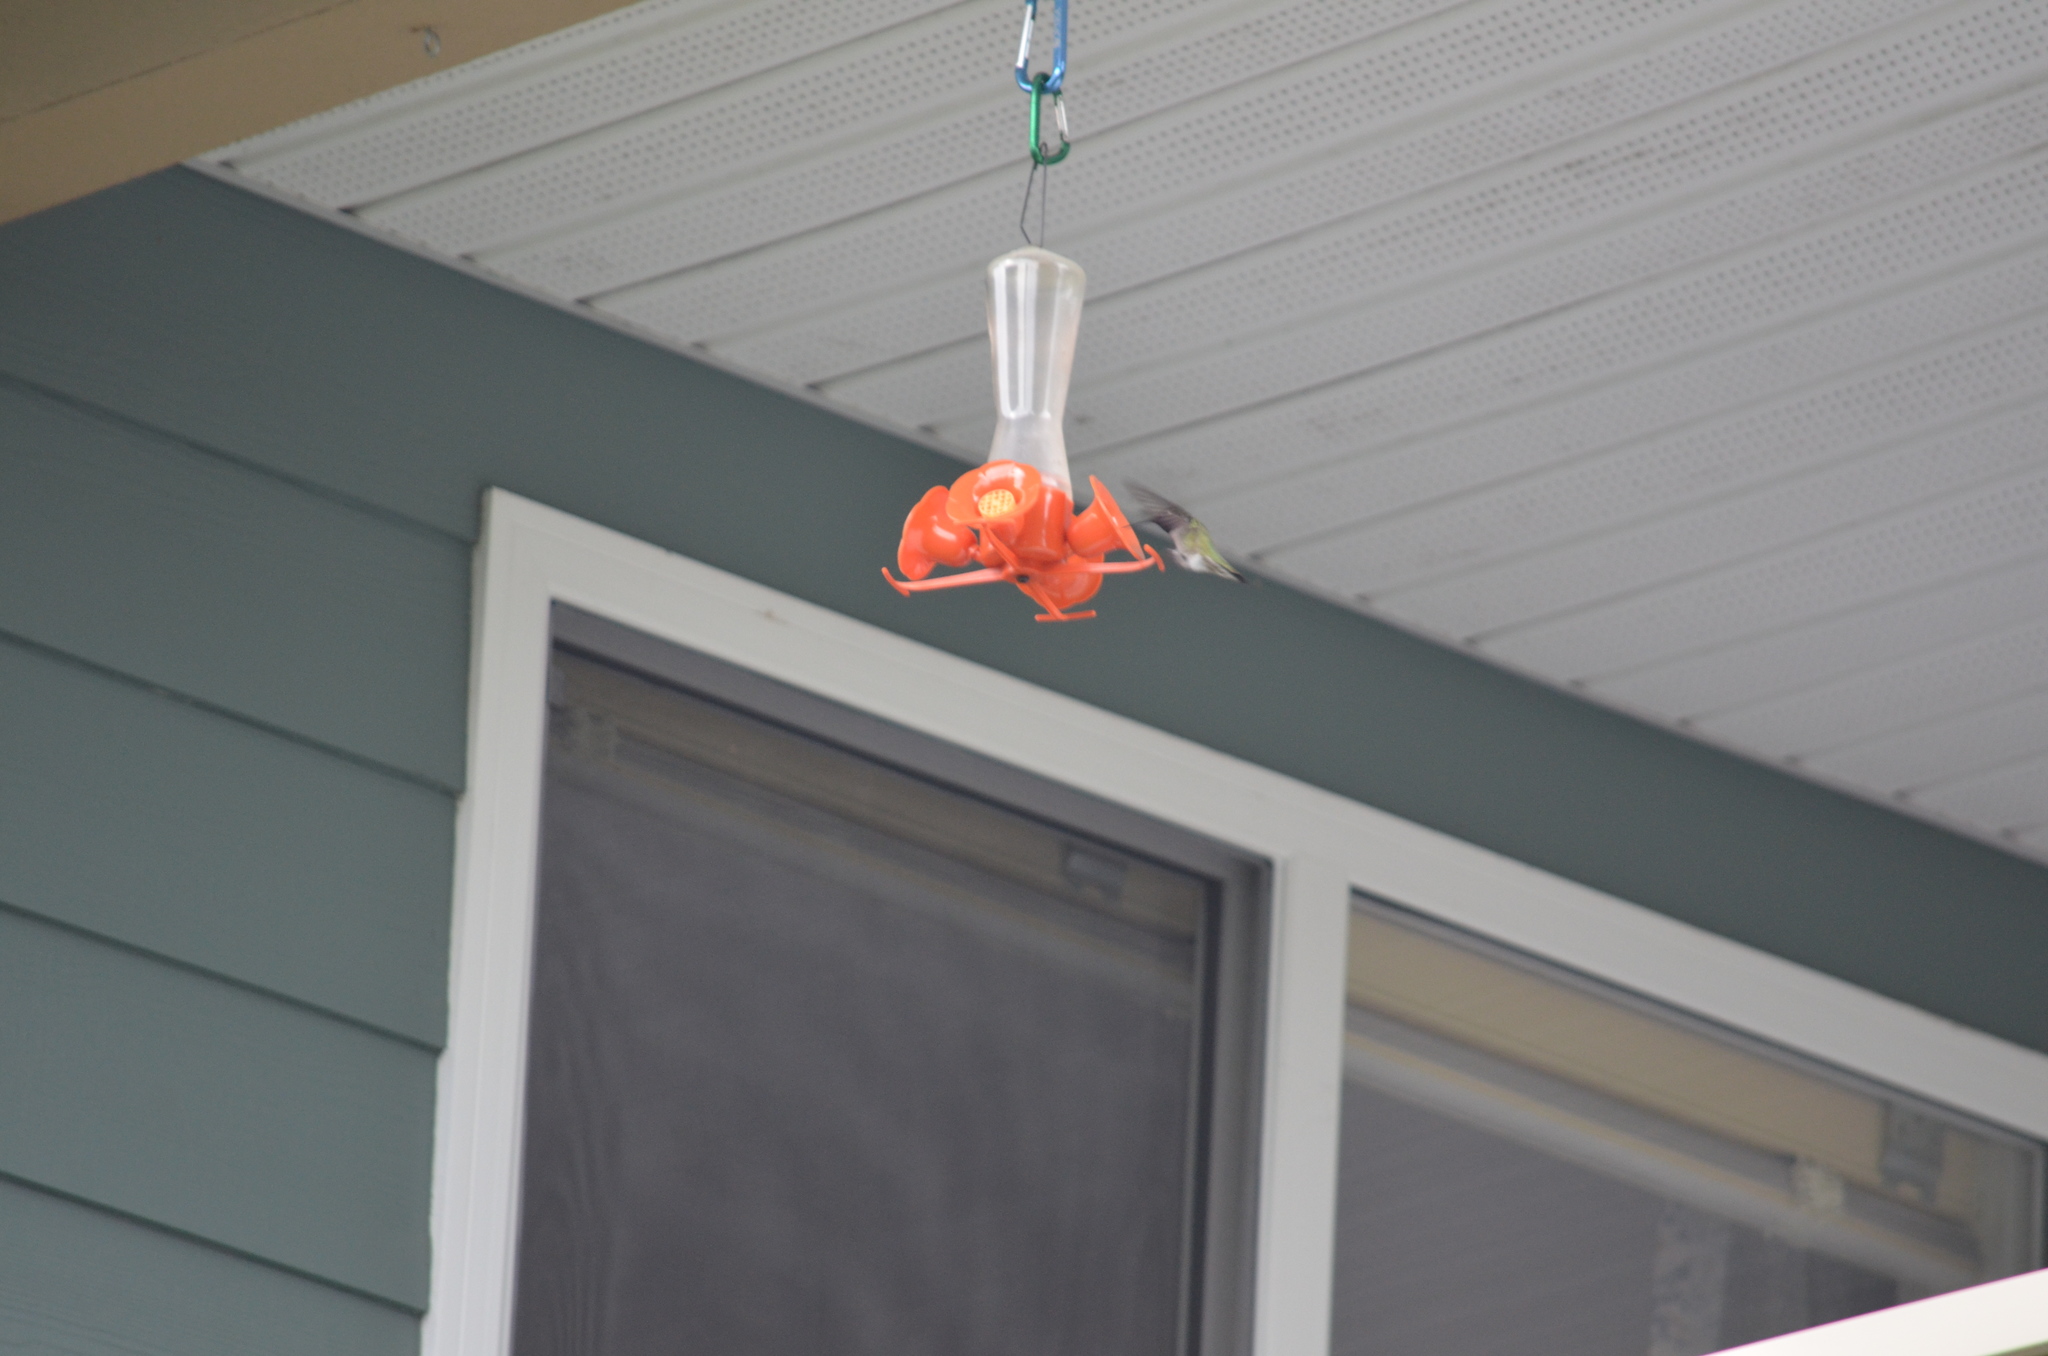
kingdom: Animalia
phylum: Chordata
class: Aves
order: Apodiformes
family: Trochilidae
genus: Calypte
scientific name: Calypte anna
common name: Anna's hummingbird
